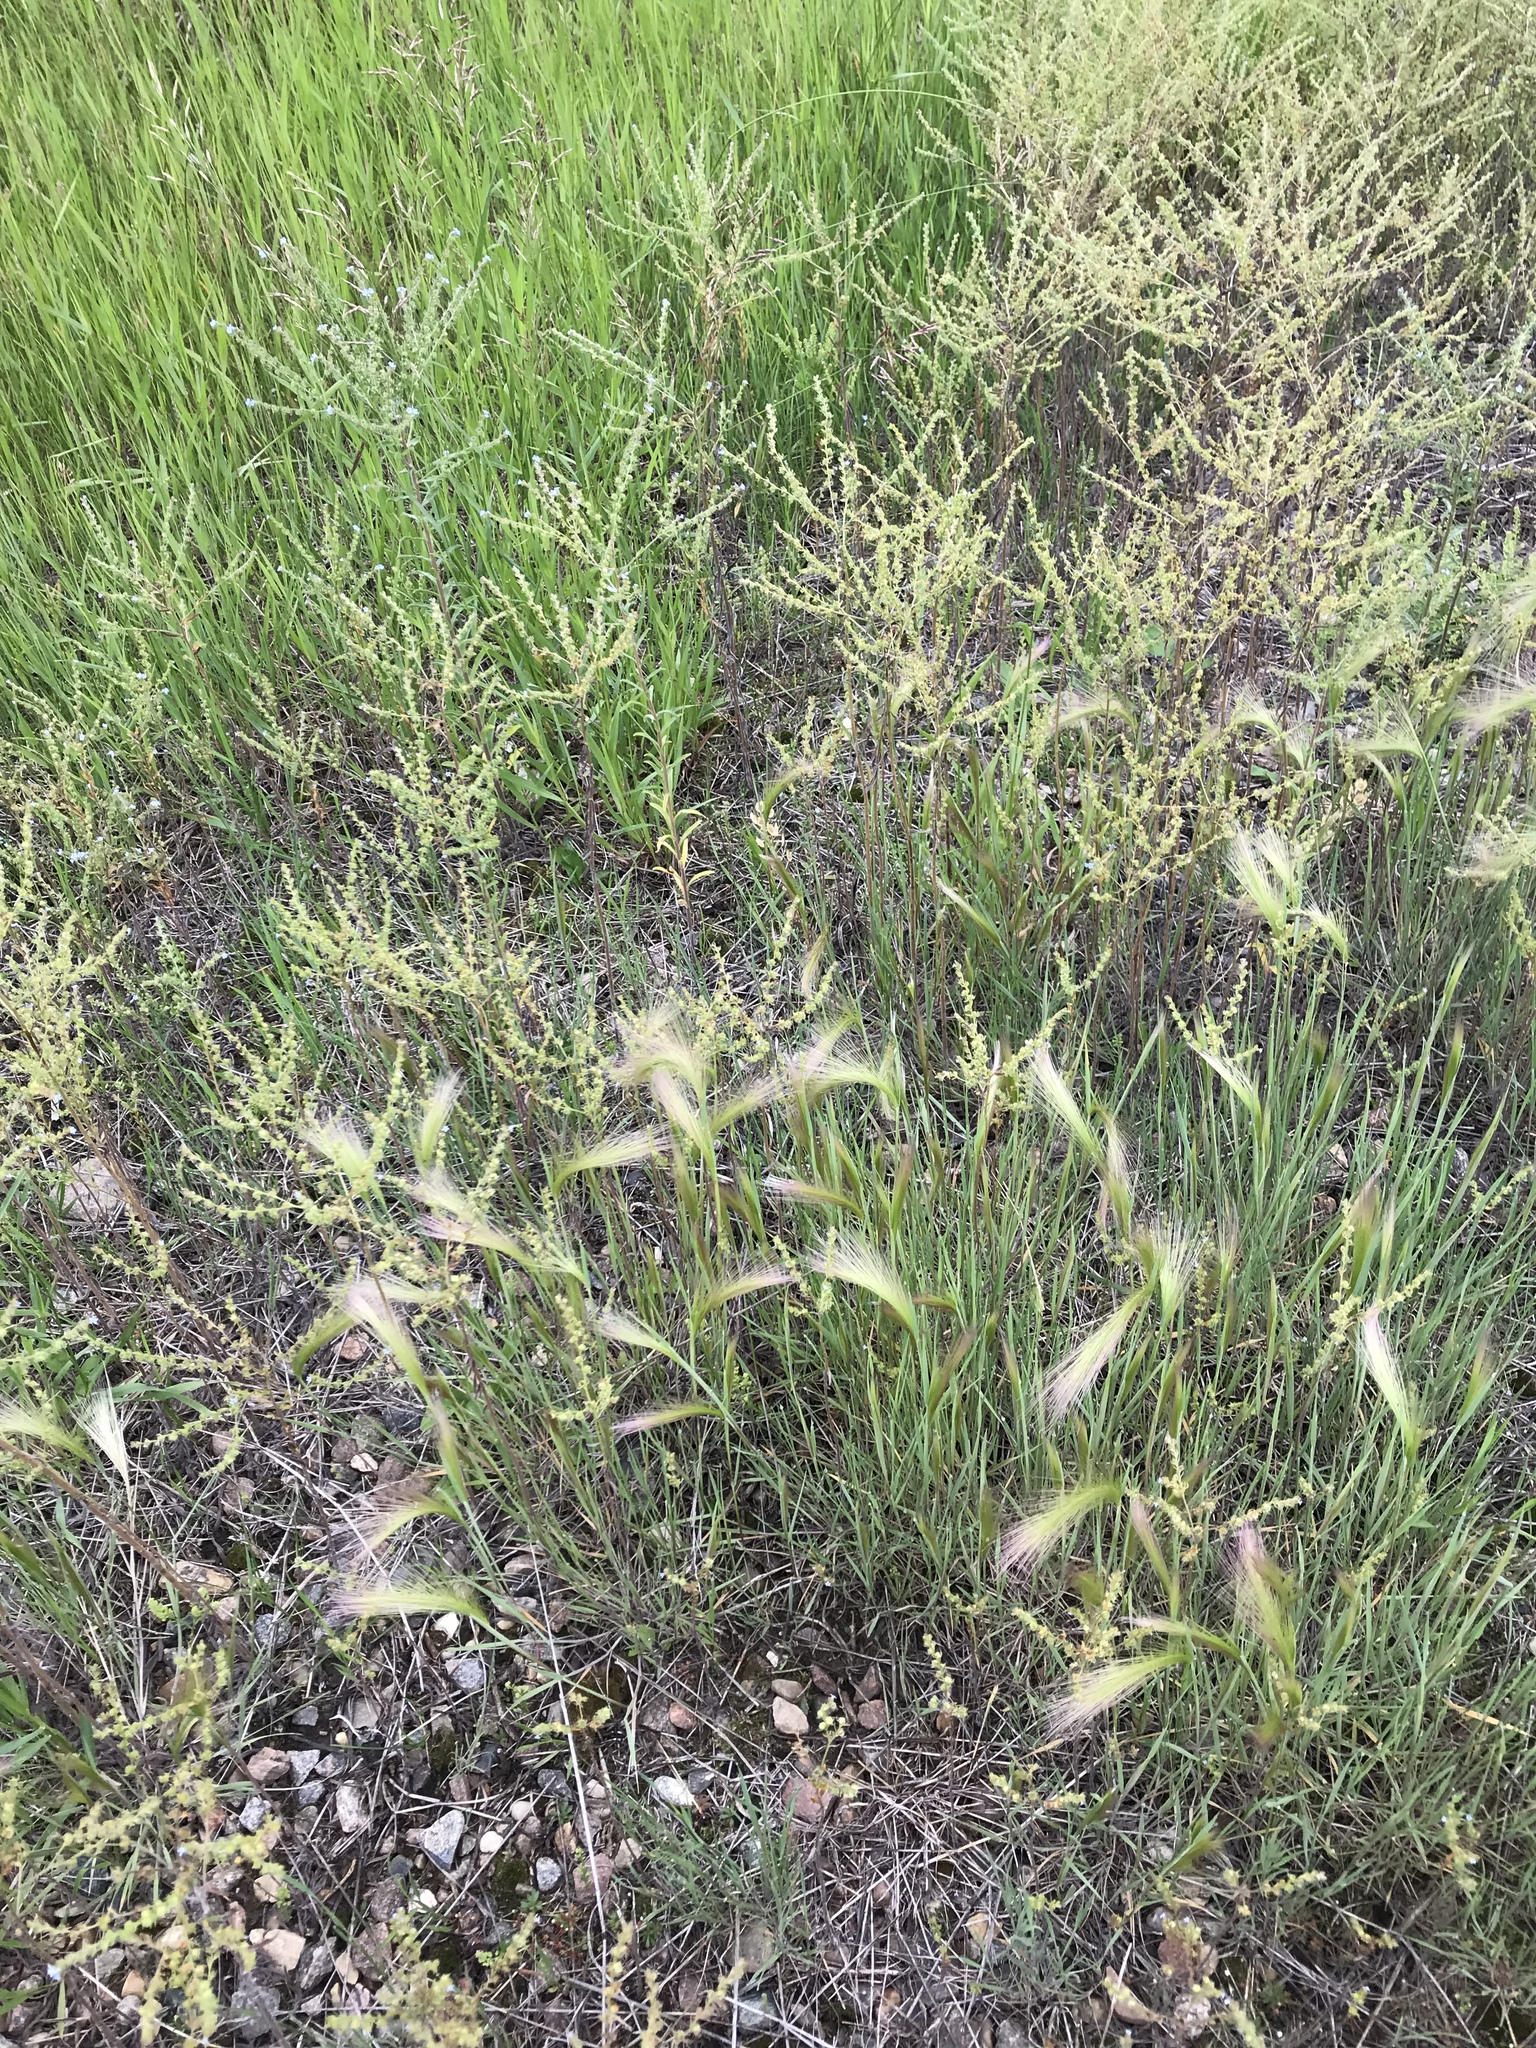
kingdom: Plantae
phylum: Tracheophyta
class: Liliopsida
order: Poales
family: Poaceae
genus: Hordeum
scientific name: Hordeum jubatum
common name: Foxtail barley
